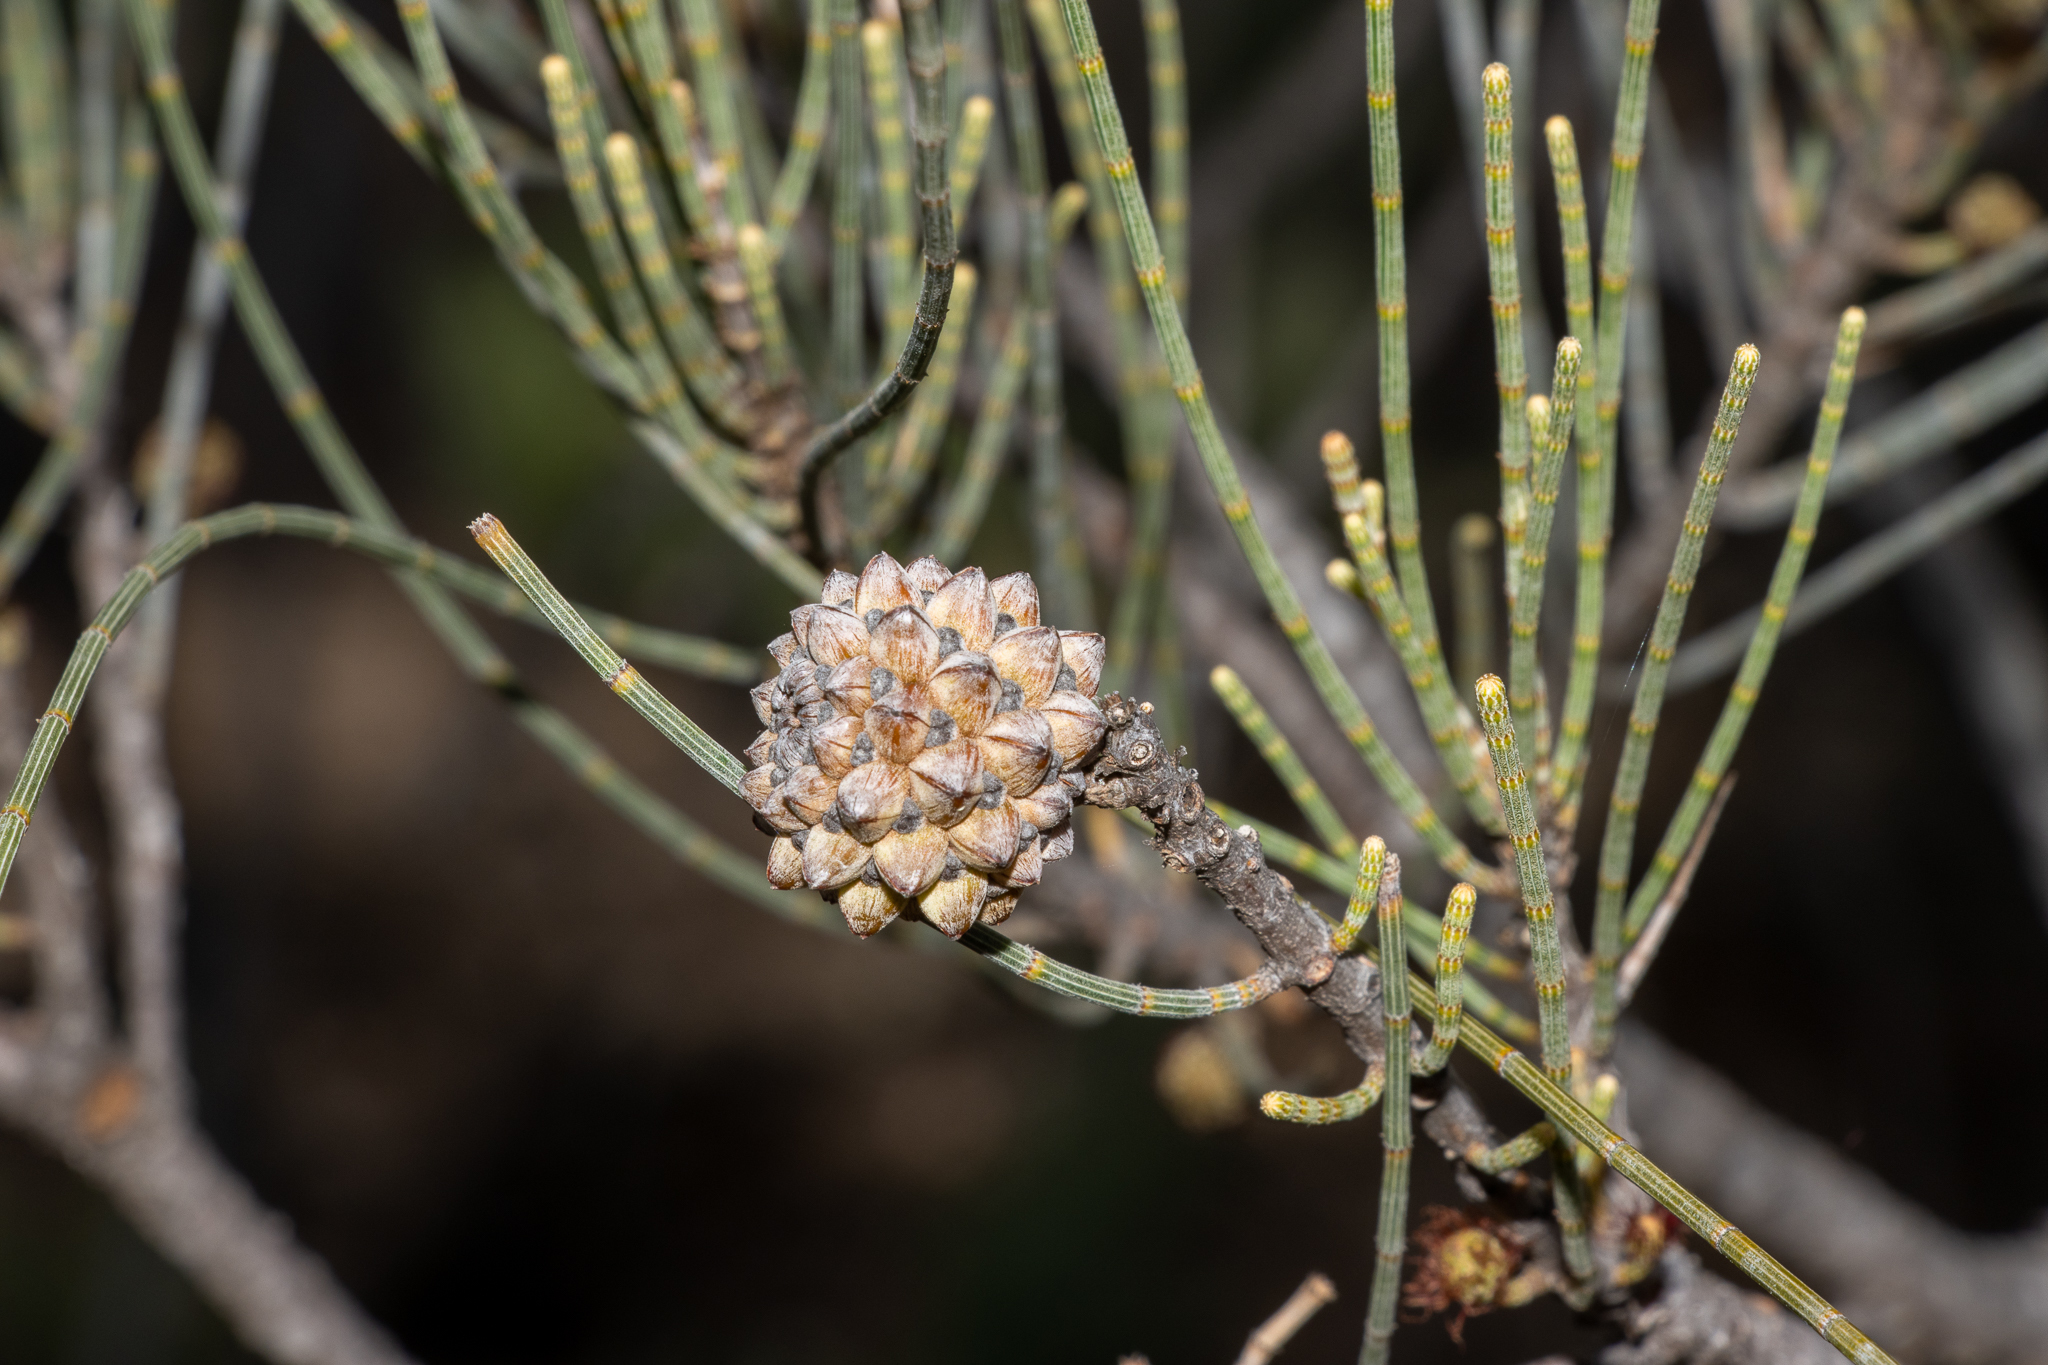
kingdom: Plantae
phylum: Tracheophyta
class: Magnoliopsida
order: Fagales
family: Casuarinaceae
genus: Casuarina
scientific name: Casuarina pauper
